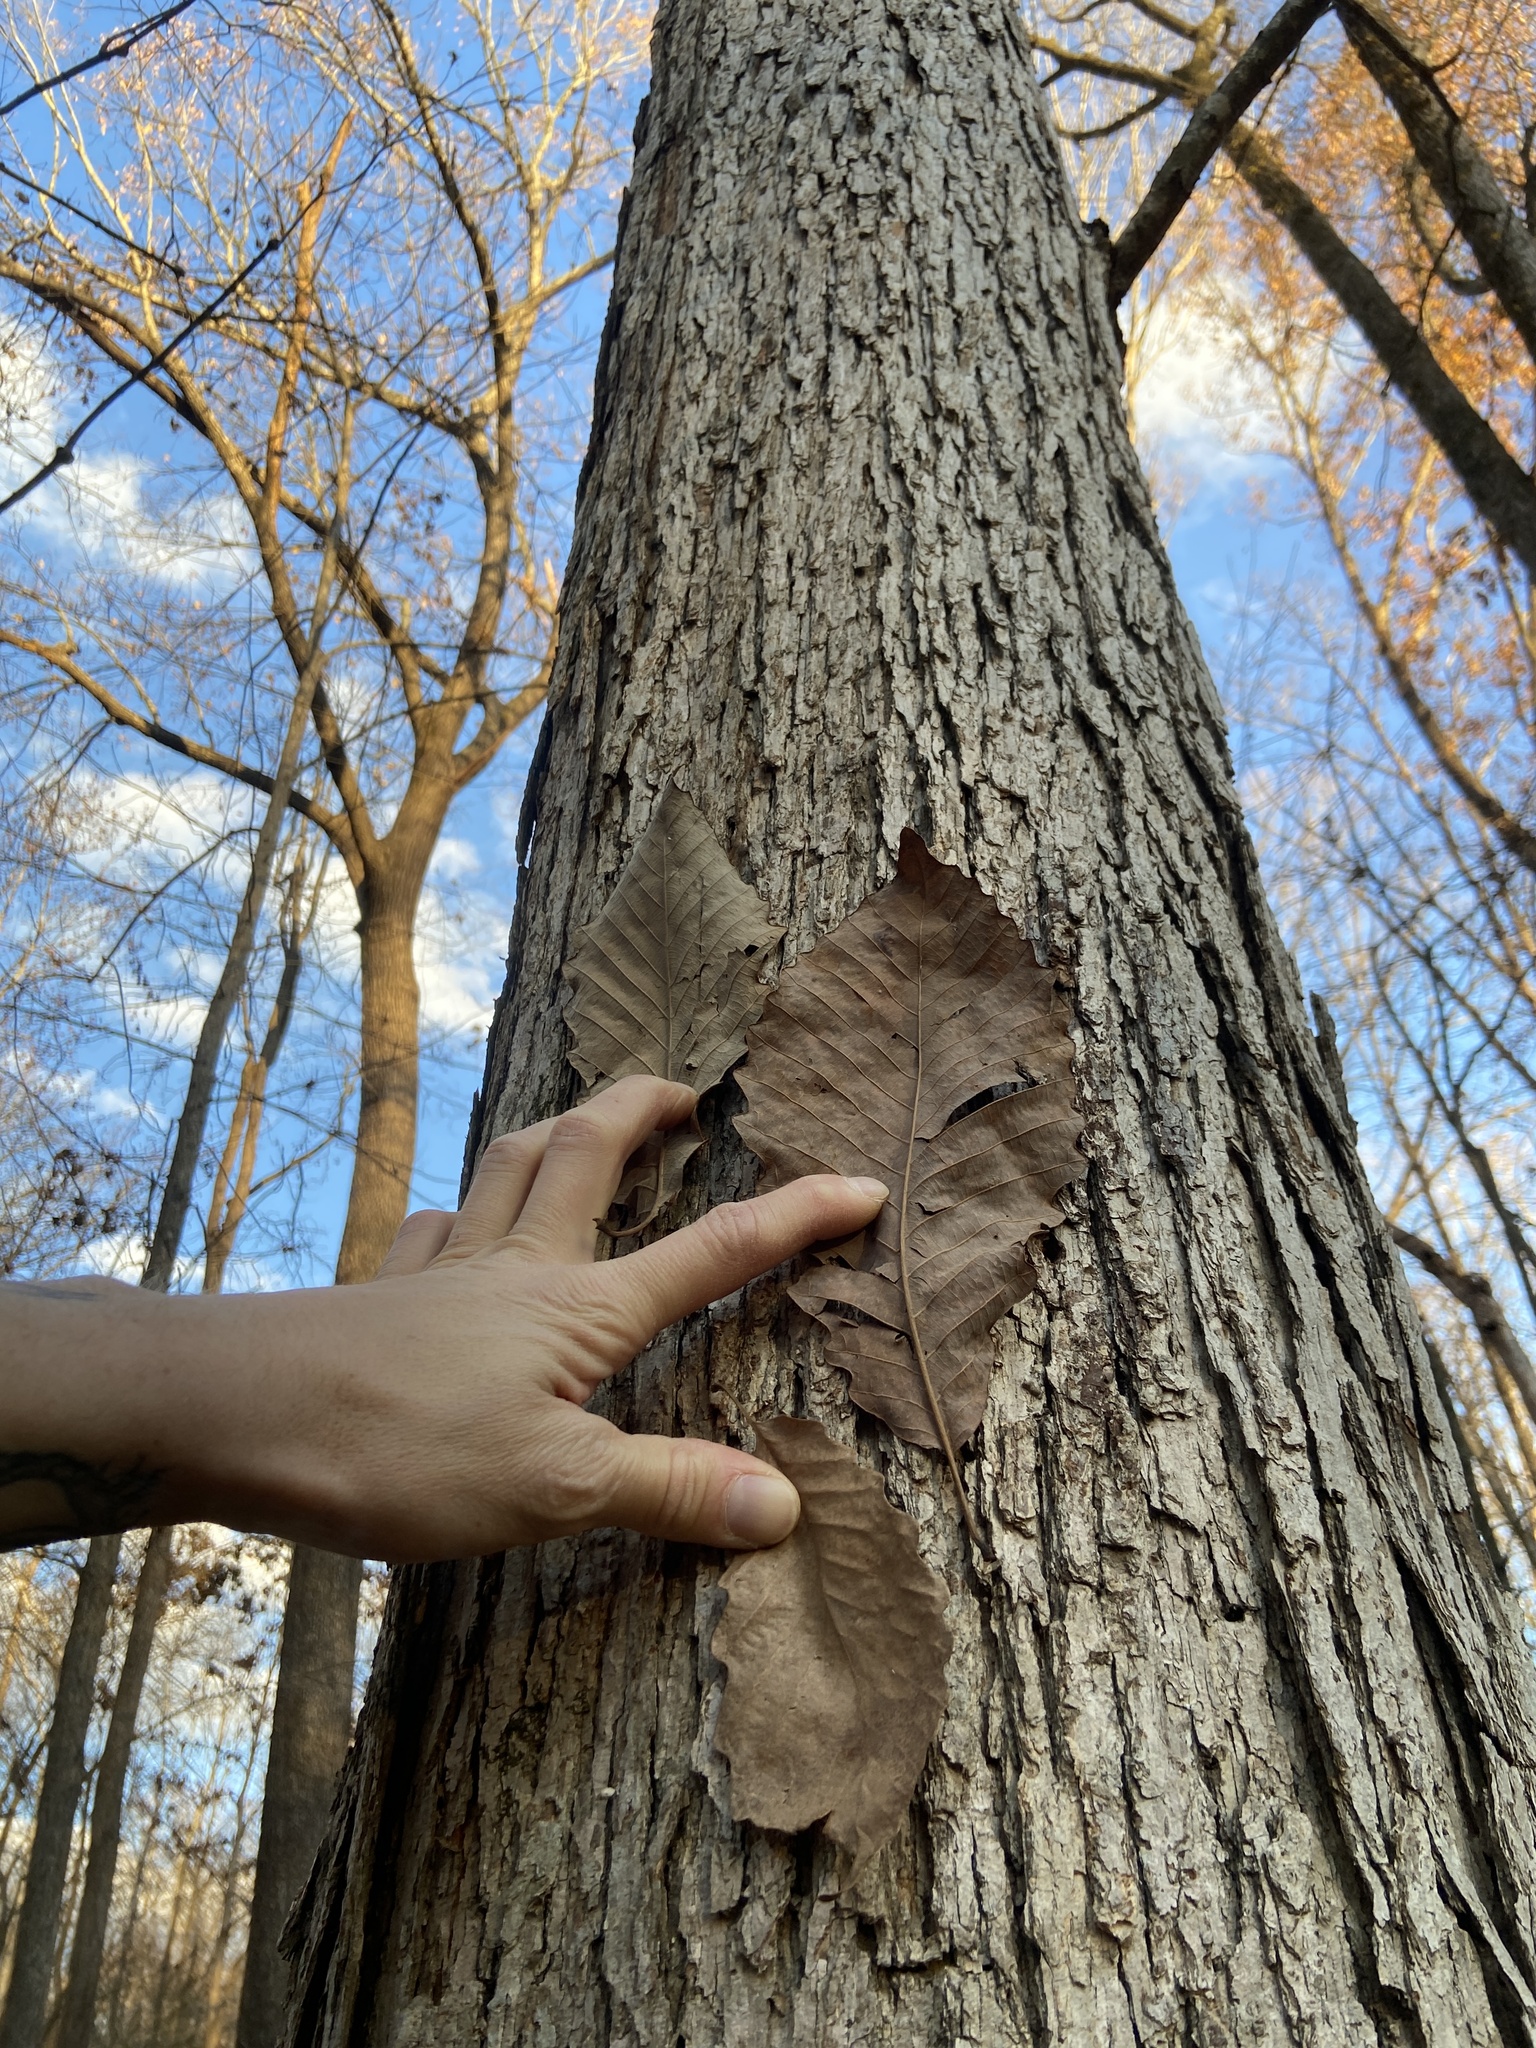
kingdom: Plantae
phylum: Tracheophyta
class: Magnoliopsida
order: Fagales
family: Fagaceae
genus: Quercus
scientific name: Quercus michauxii
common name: Swamp chestnut oak
